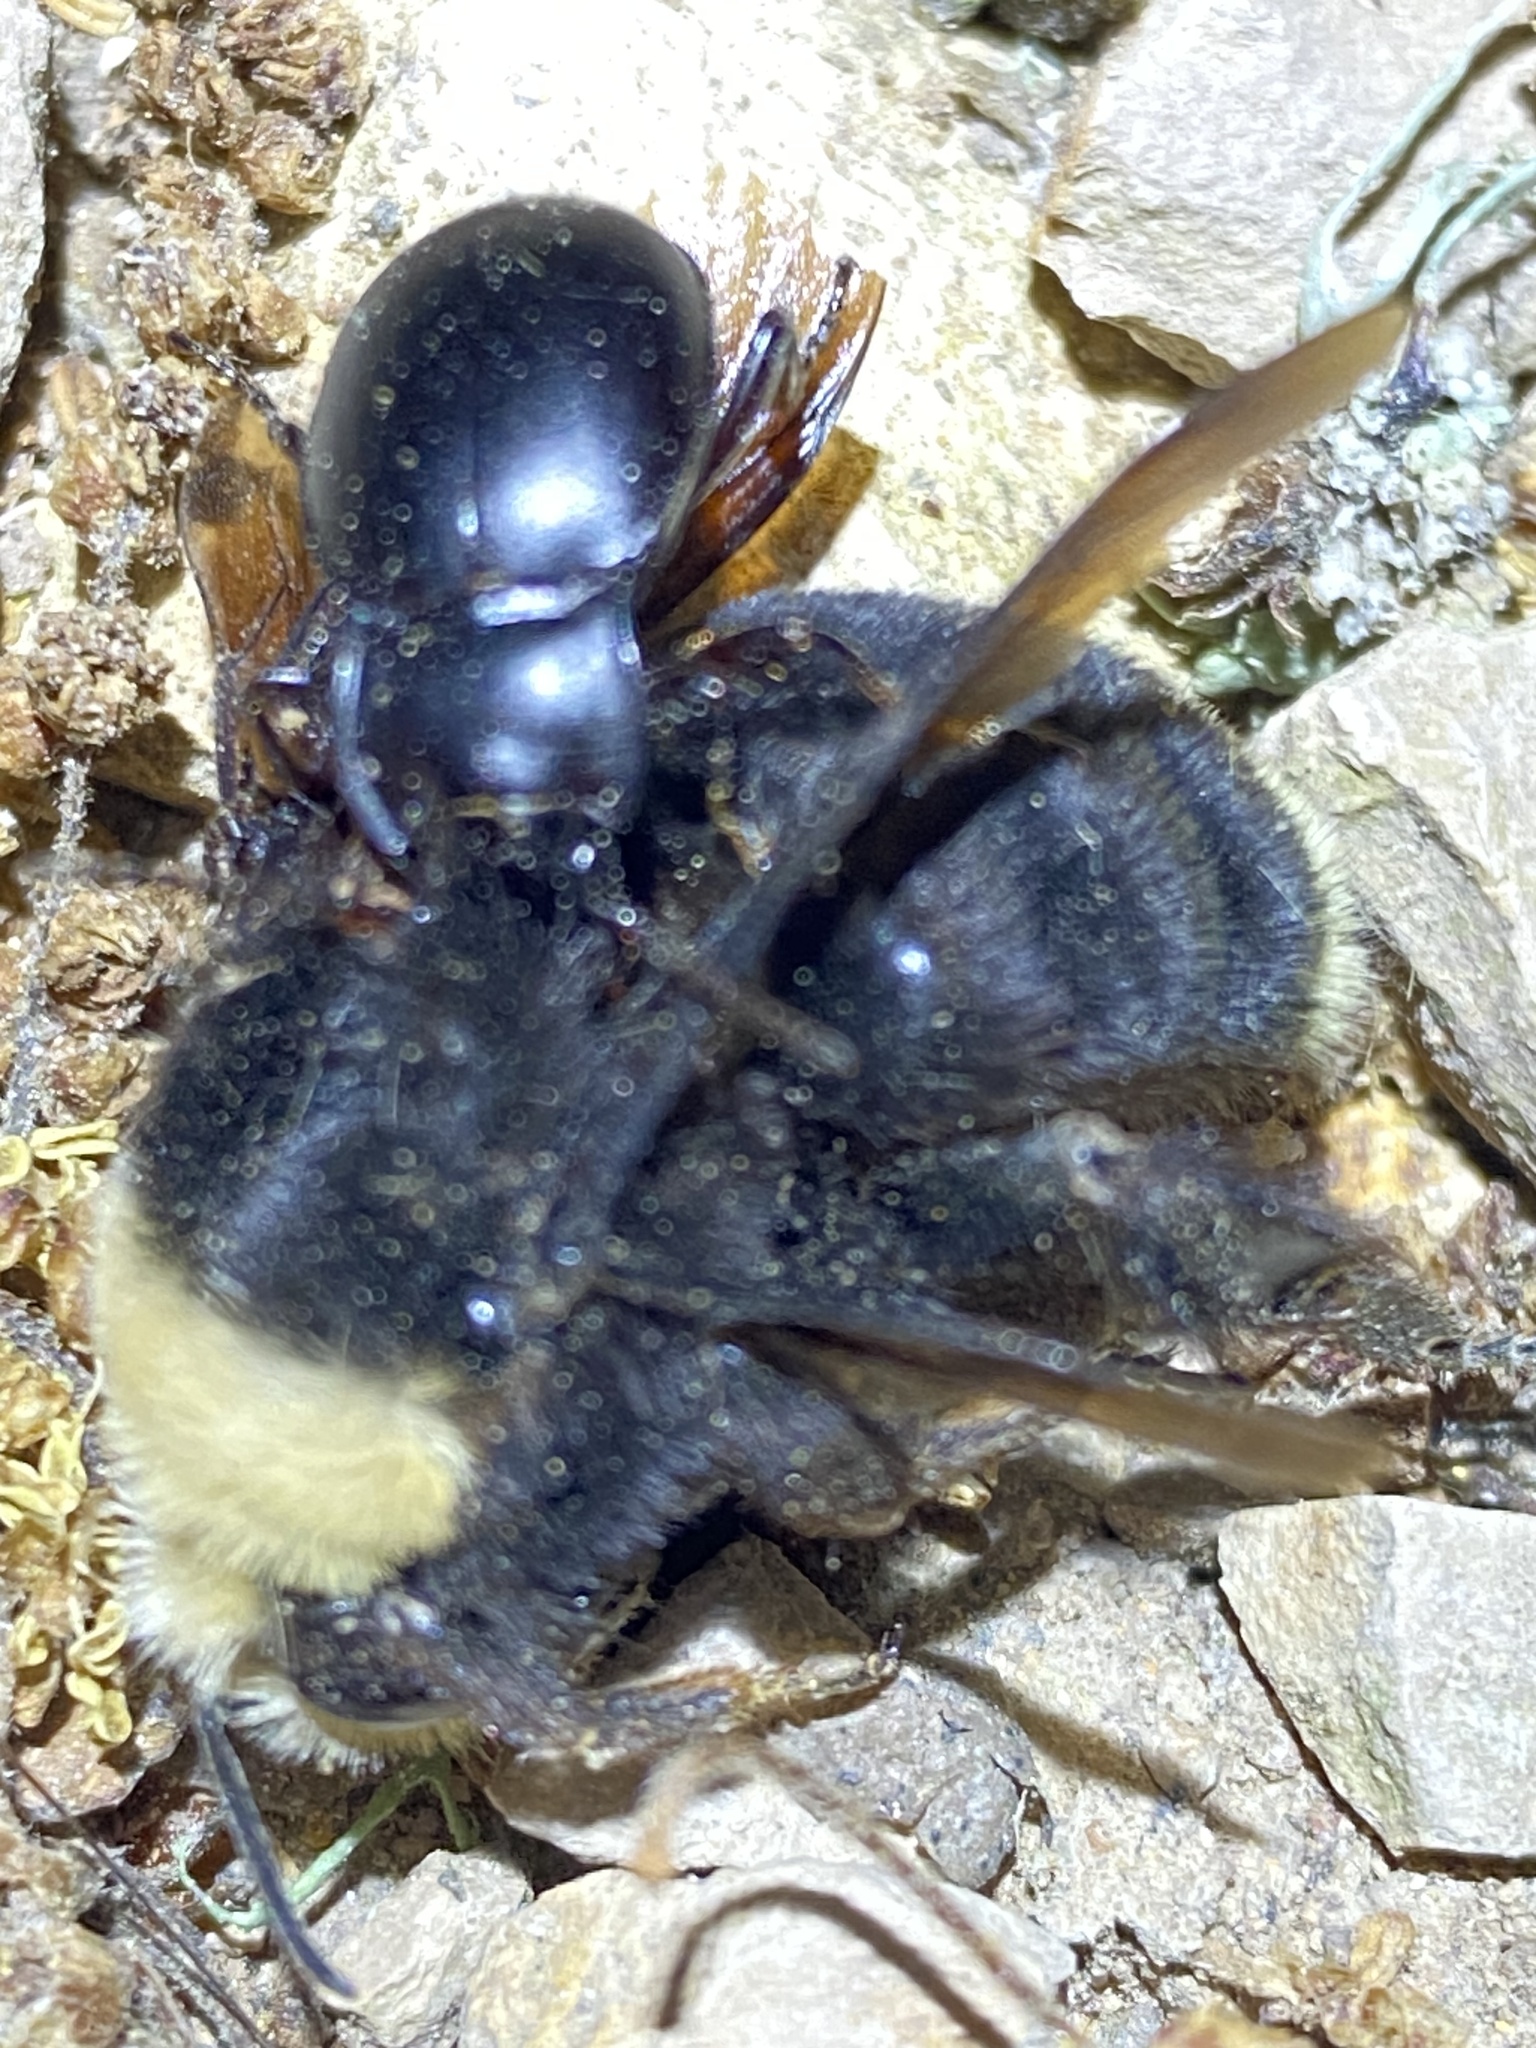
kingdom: Animalia
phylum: Arthropoda
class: Insecta
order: Coleoptera
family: Carabidae
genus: Metrius
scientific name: Metrius contractus
